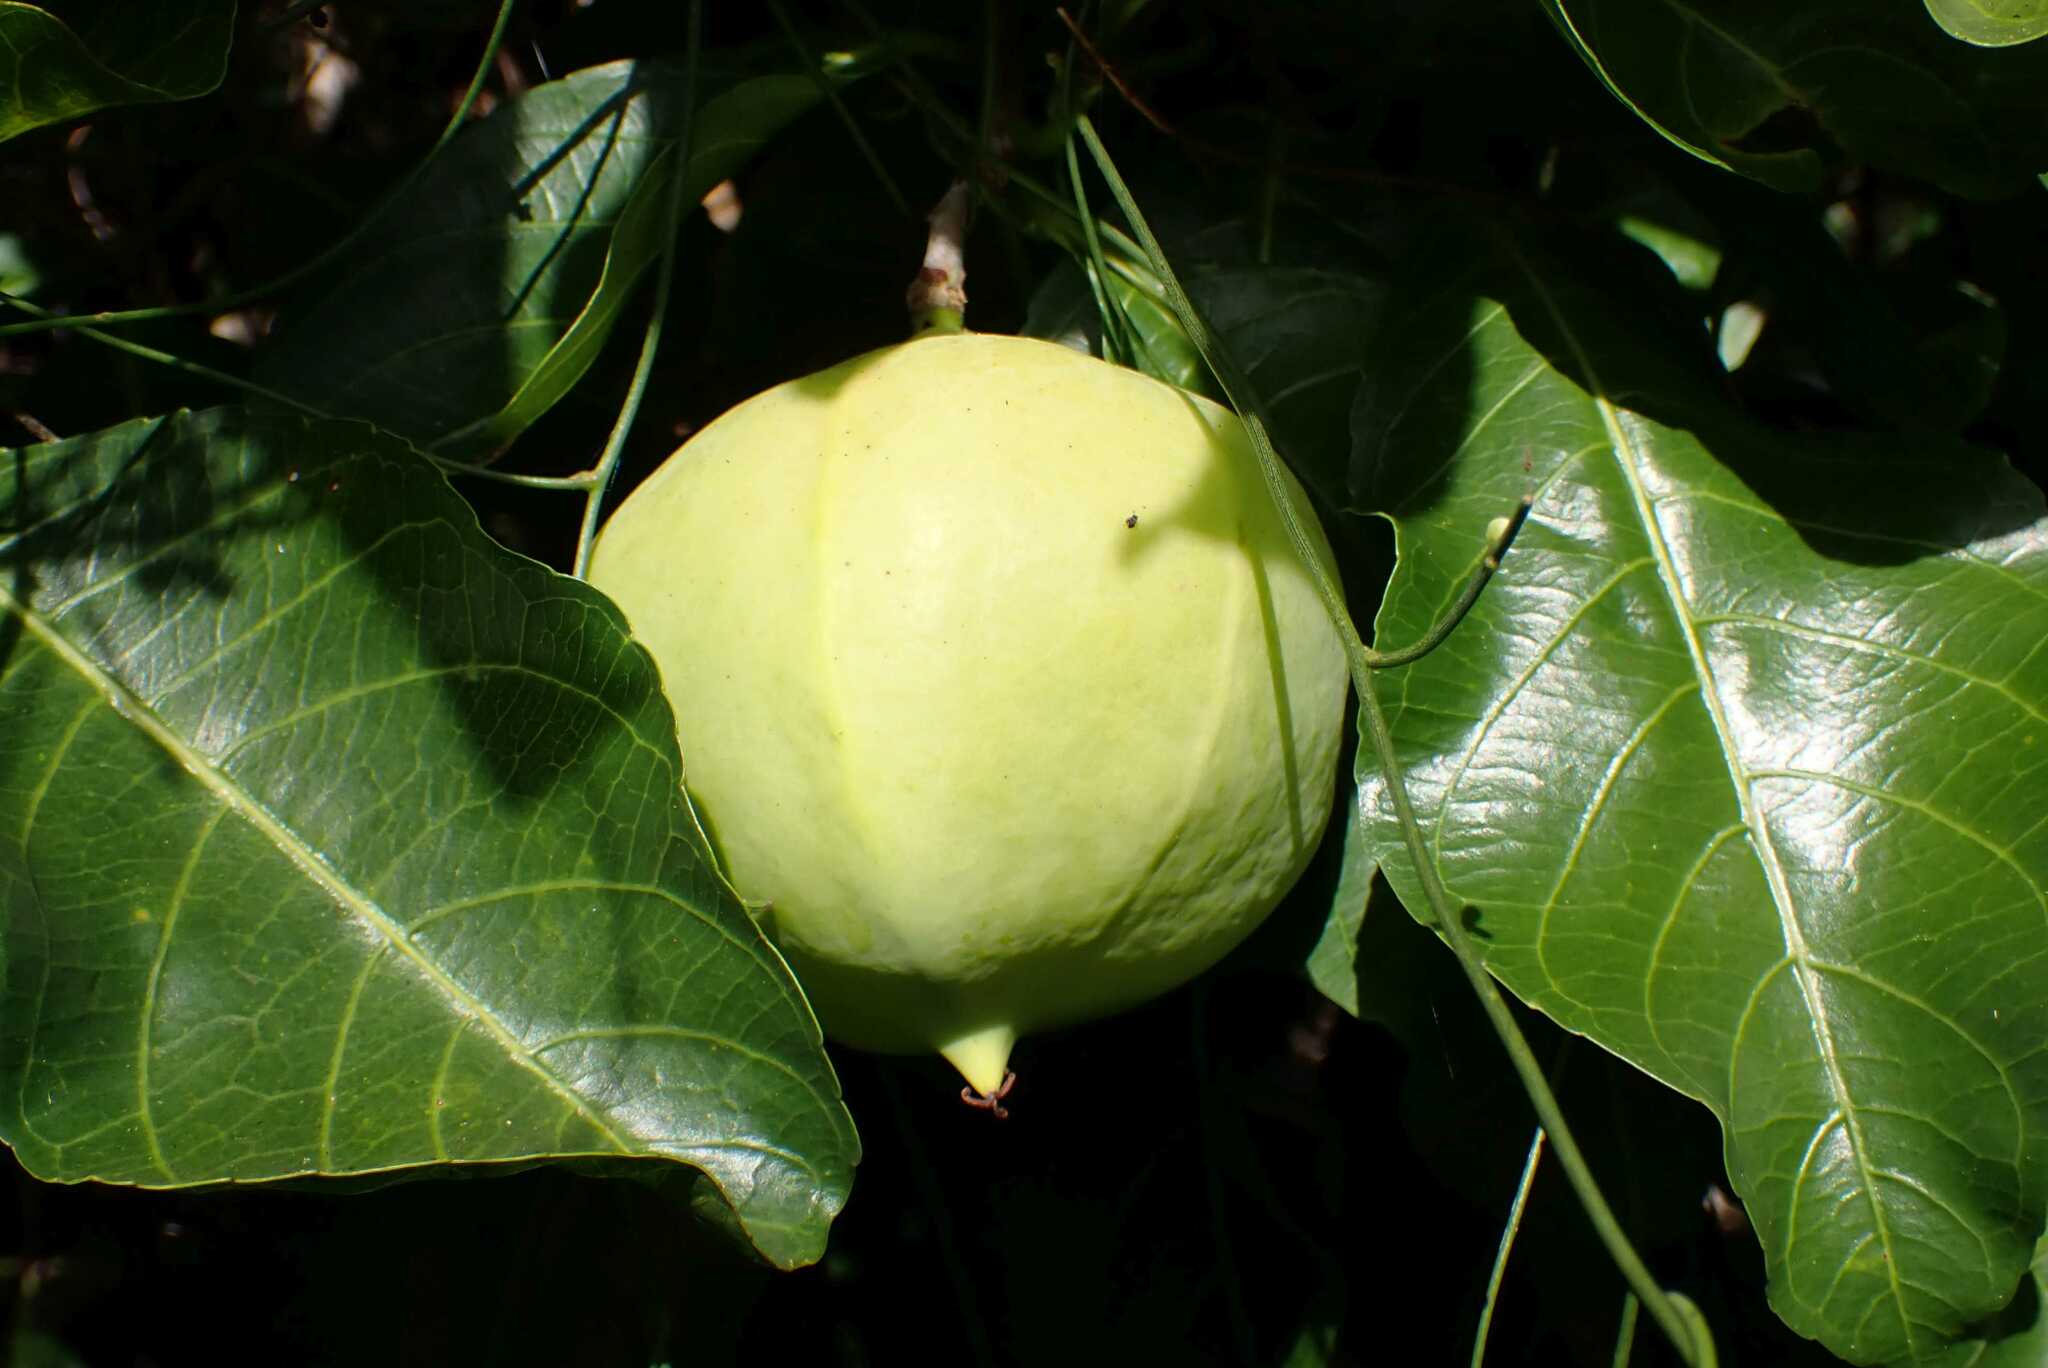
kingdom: Plantae
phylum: Tracheophyta
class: Magnoliopsida
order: Malpighiales
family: Euphorbiaceae
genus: Excoecaria
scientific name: Excoecaria bussei
